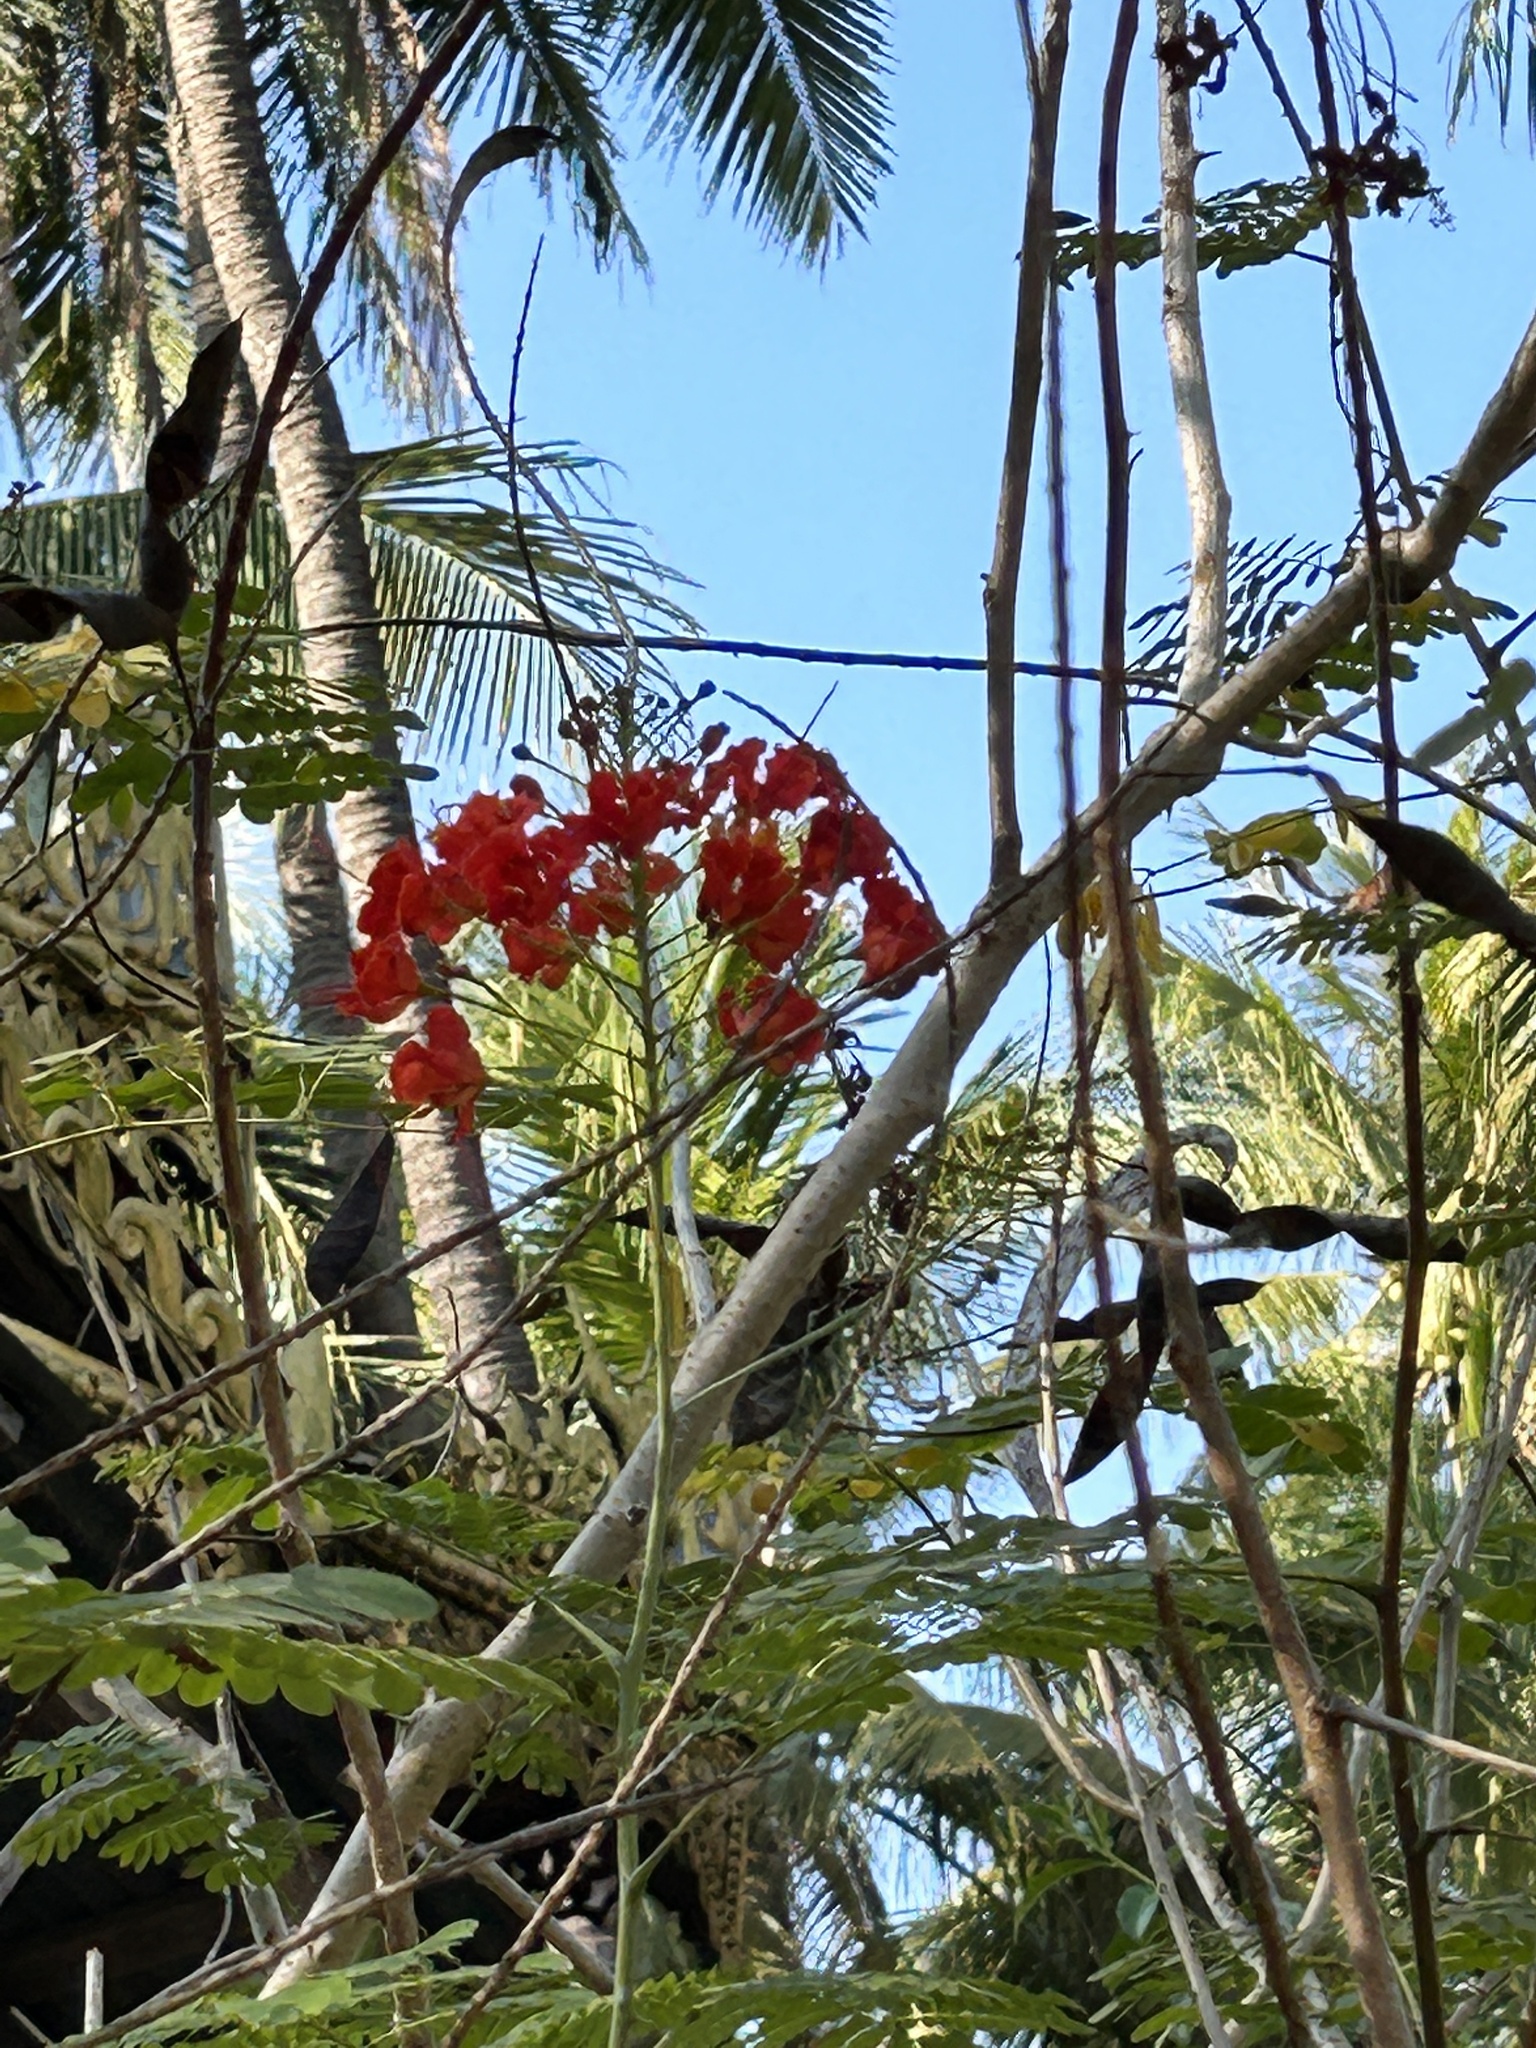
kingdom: Plantae
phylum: Tracheophyta
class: Magnoliopsida
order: Fabales
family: Fabaceae
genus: Caesalpinia
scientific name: Caesalpinia pulcherrima
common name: Pride-of-barbados
